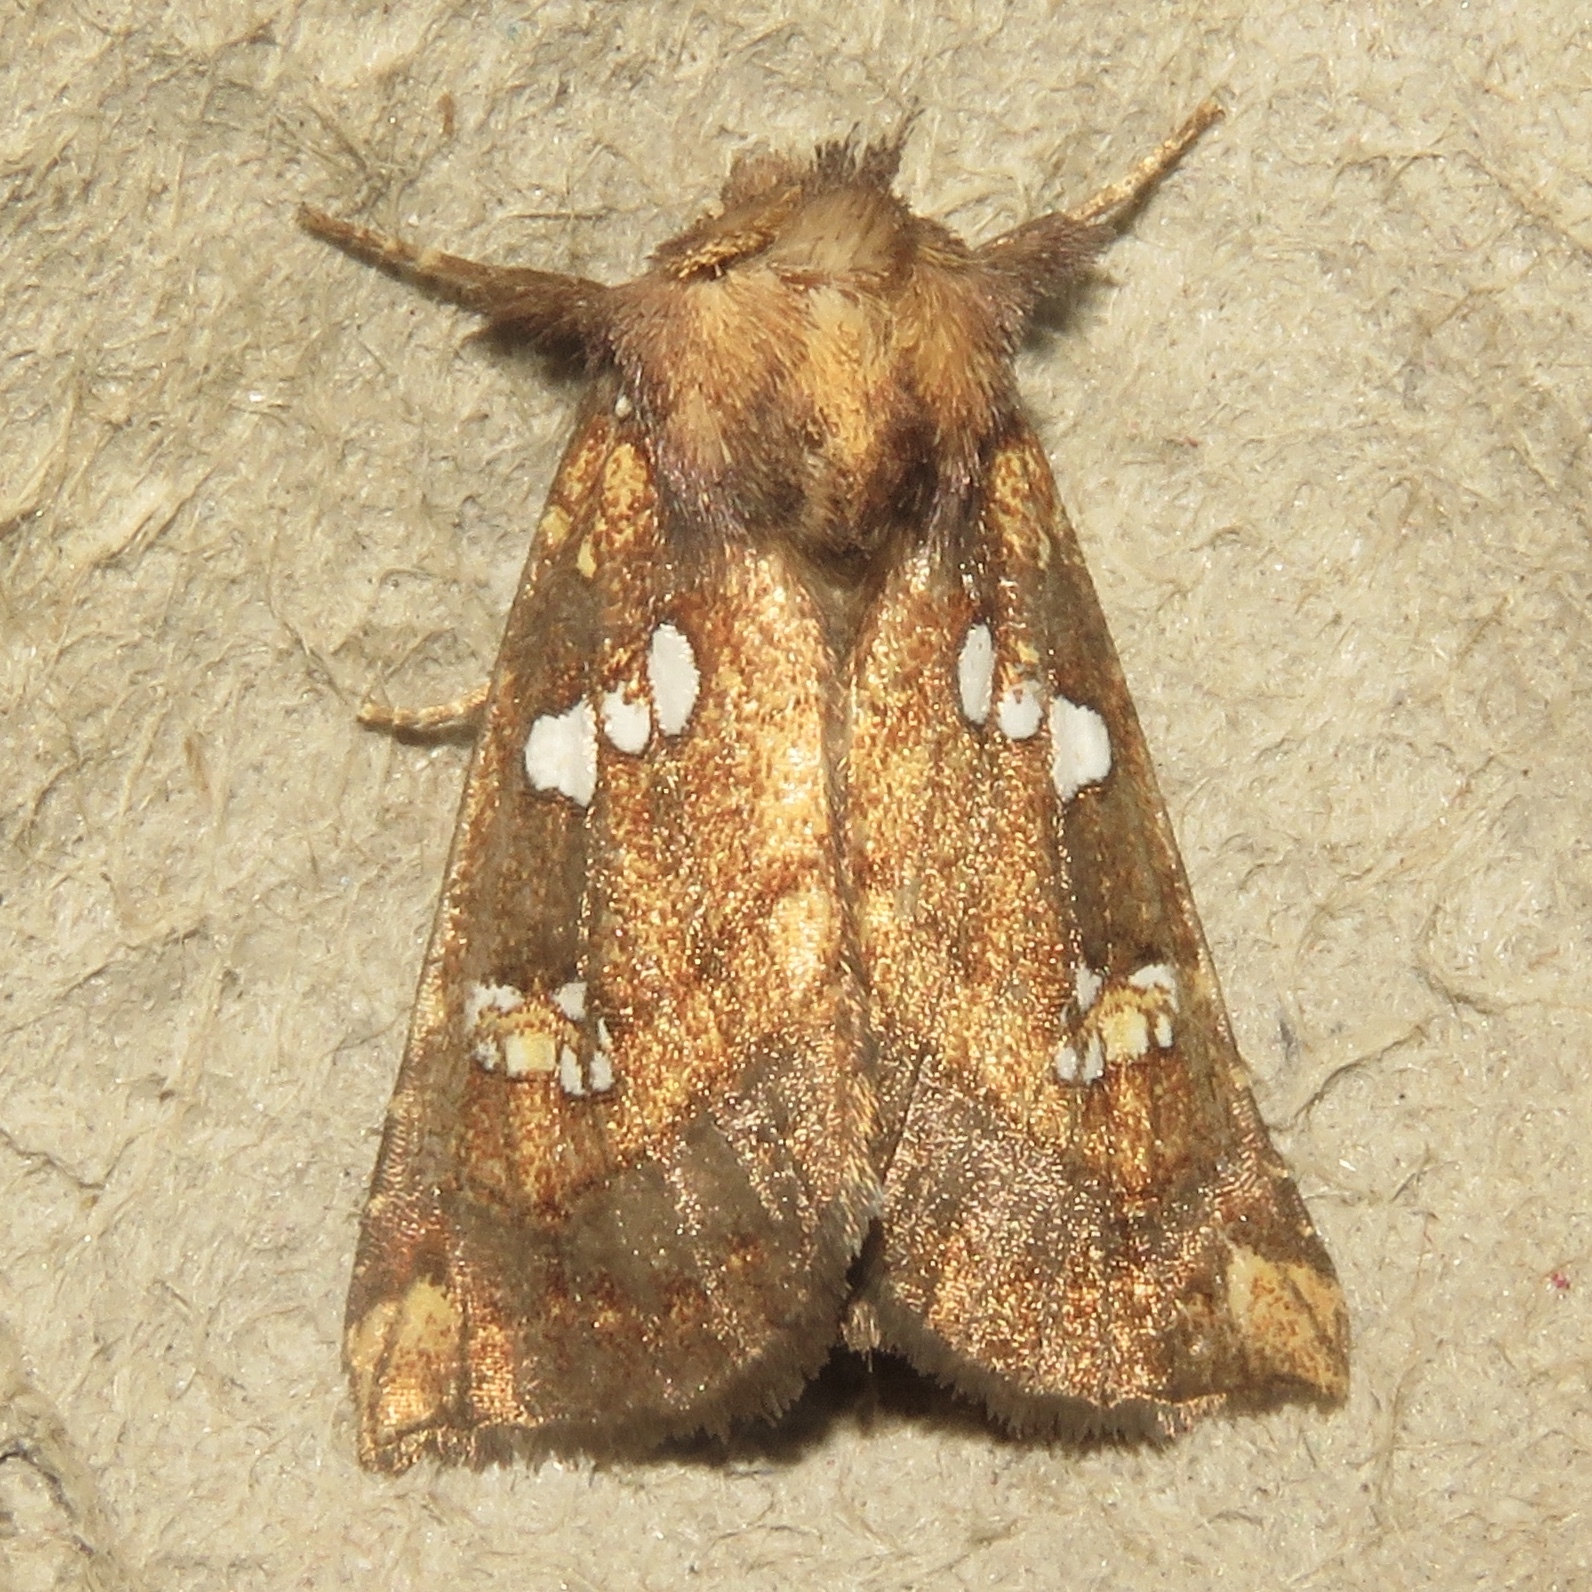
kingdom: Animalia
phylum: Arthropoda
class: Insecta
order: Lepidoptera
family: Noctuidae
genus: Papaipema
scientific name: Papaipema arctivorens
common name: Northern burdock borer moth
